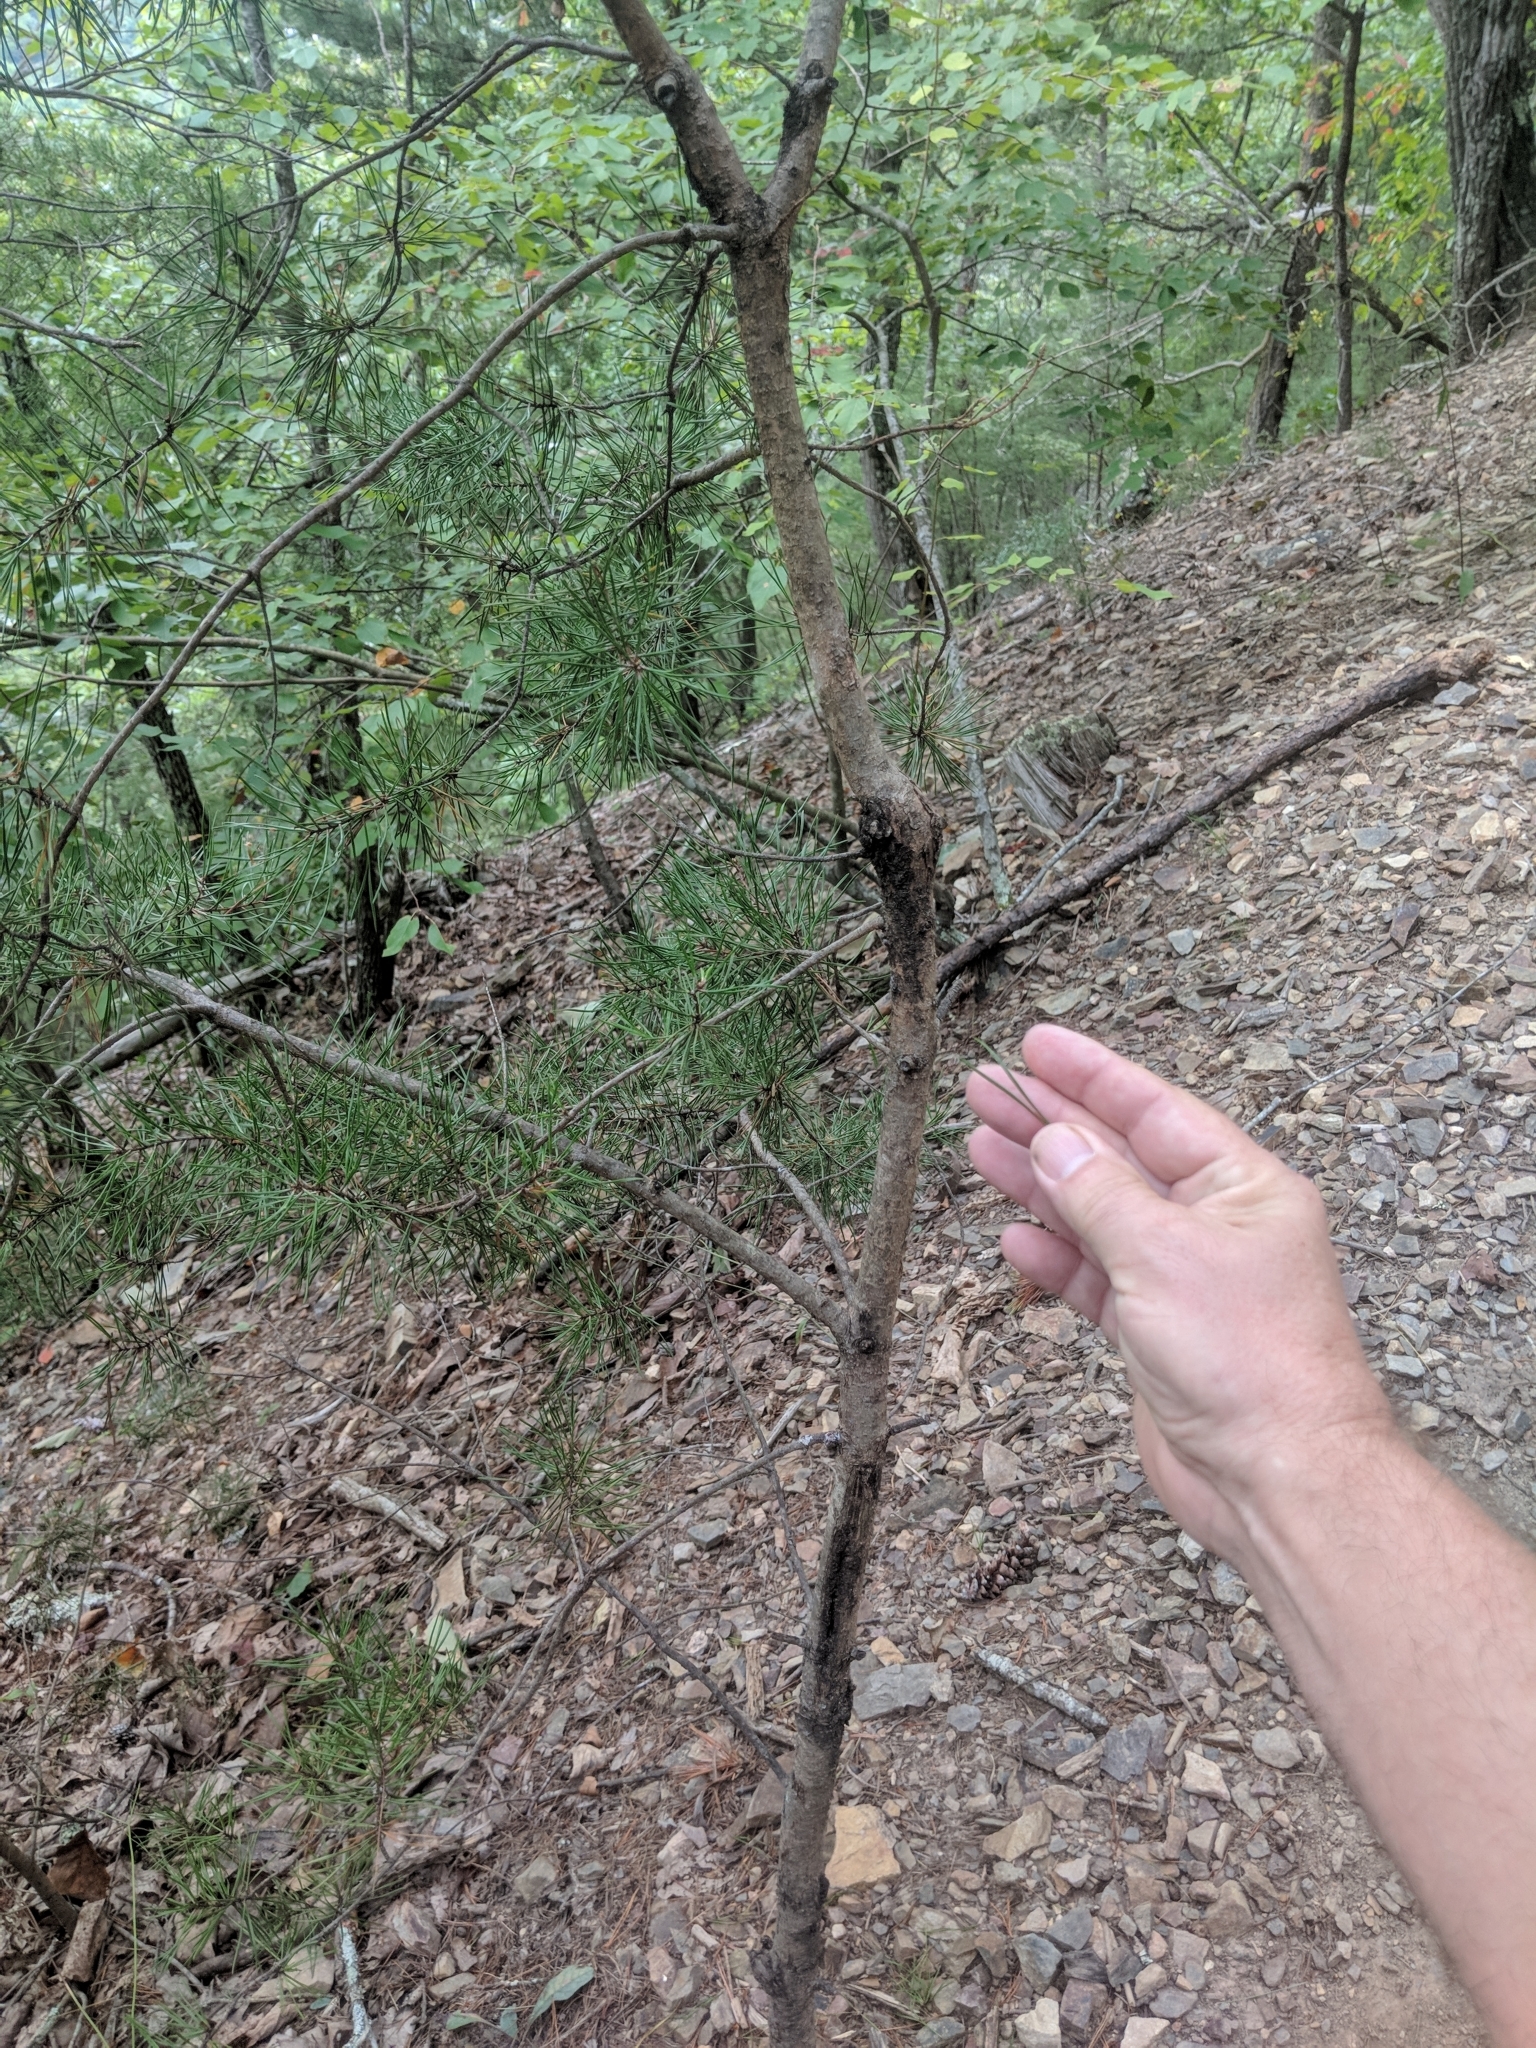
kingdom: Plantae
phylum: Tracheophyta
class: Pinopsida
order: Pinales
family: Pinaceae
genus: Pinus
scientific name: Pinus virginiana
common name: Scrub pine
